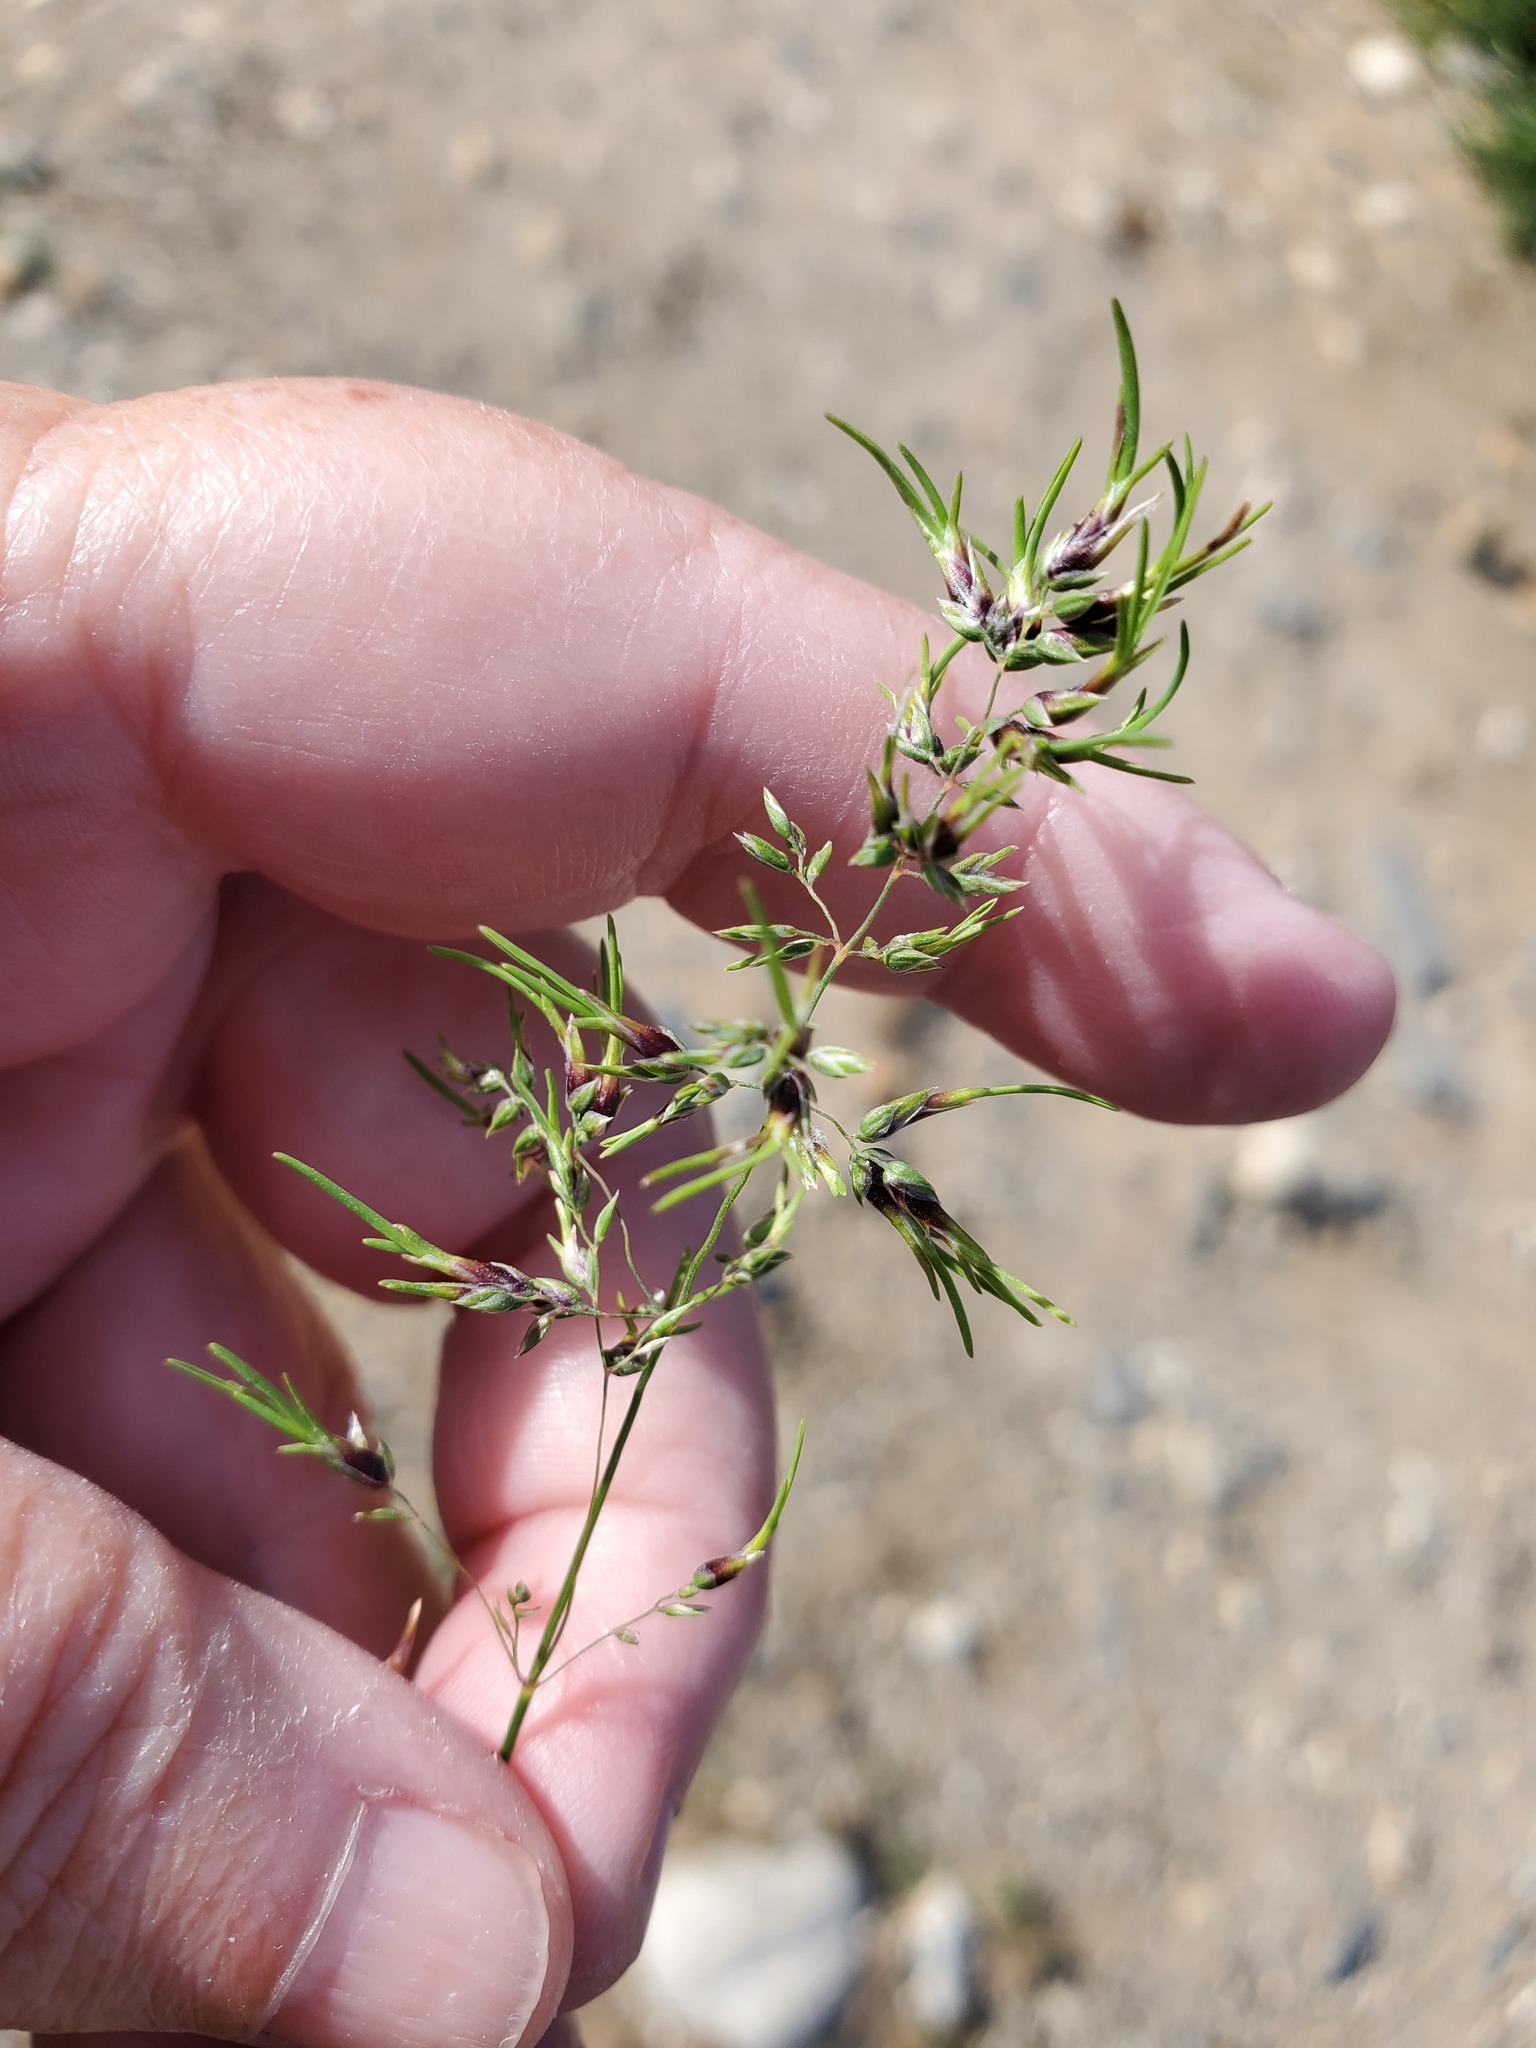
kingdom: Plantae
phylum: Tracheophyta
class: Liliopsida
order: Poales
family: Poaceae
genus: Poa
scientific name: Poa bulbosa
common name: Bulbous bluegrass
